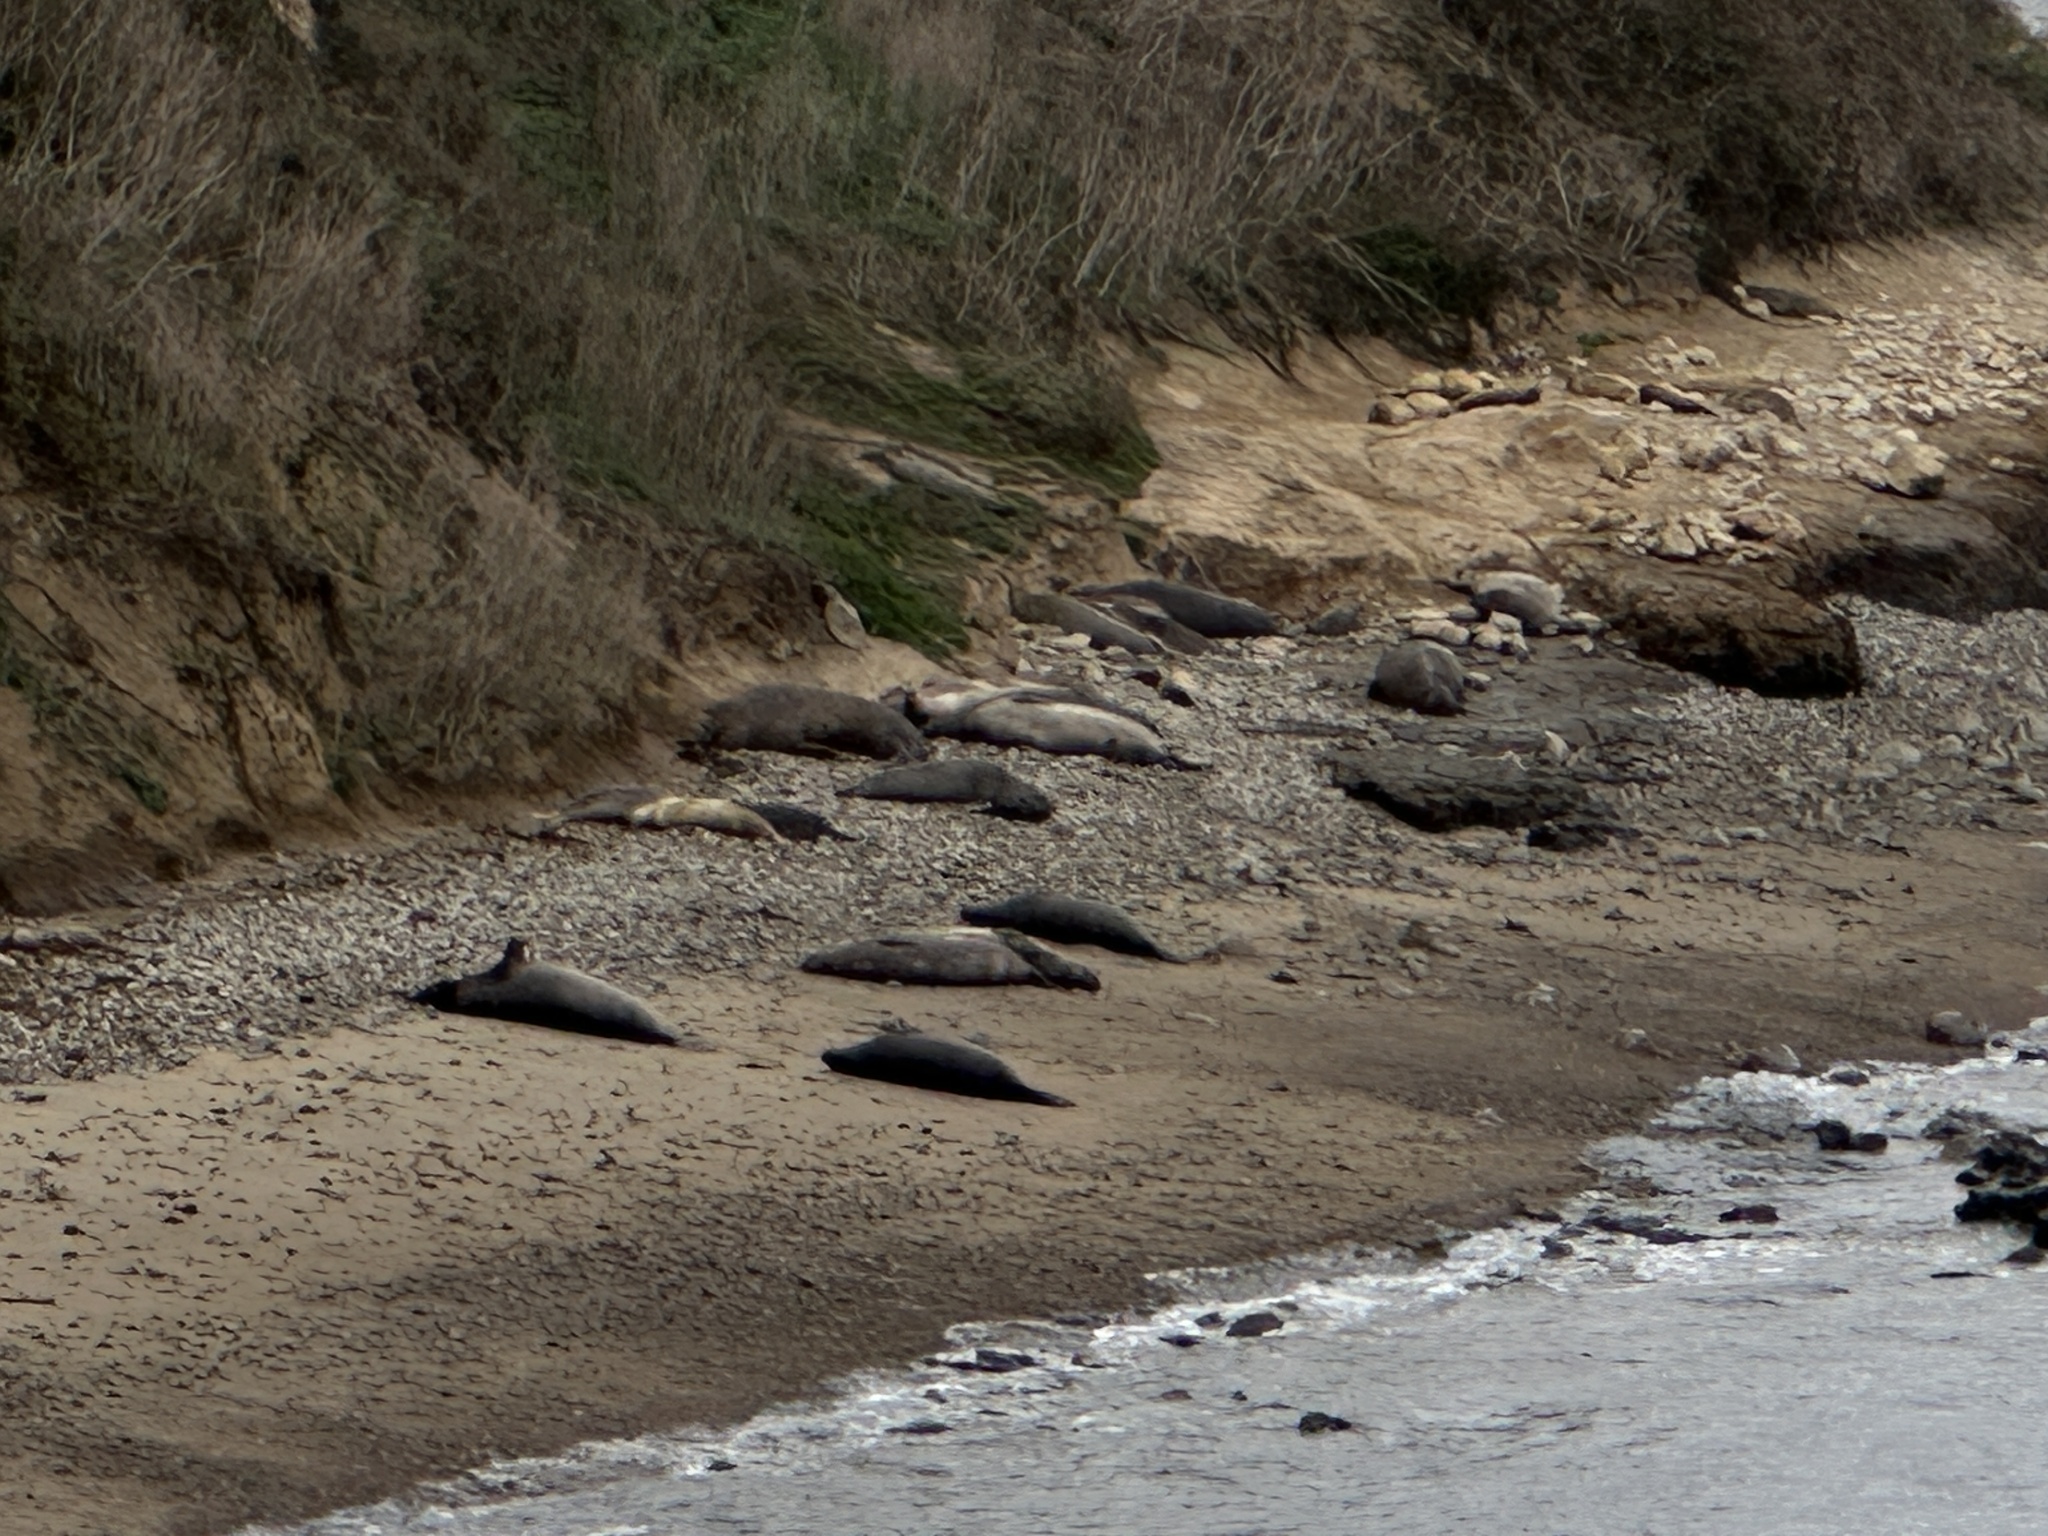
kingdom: Animalia
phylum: Chordata
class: Mammalia
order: Carnivora
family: Phocidae
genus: Mirounga
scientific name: Mirounga angustirostris
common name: Northern elephant seal
